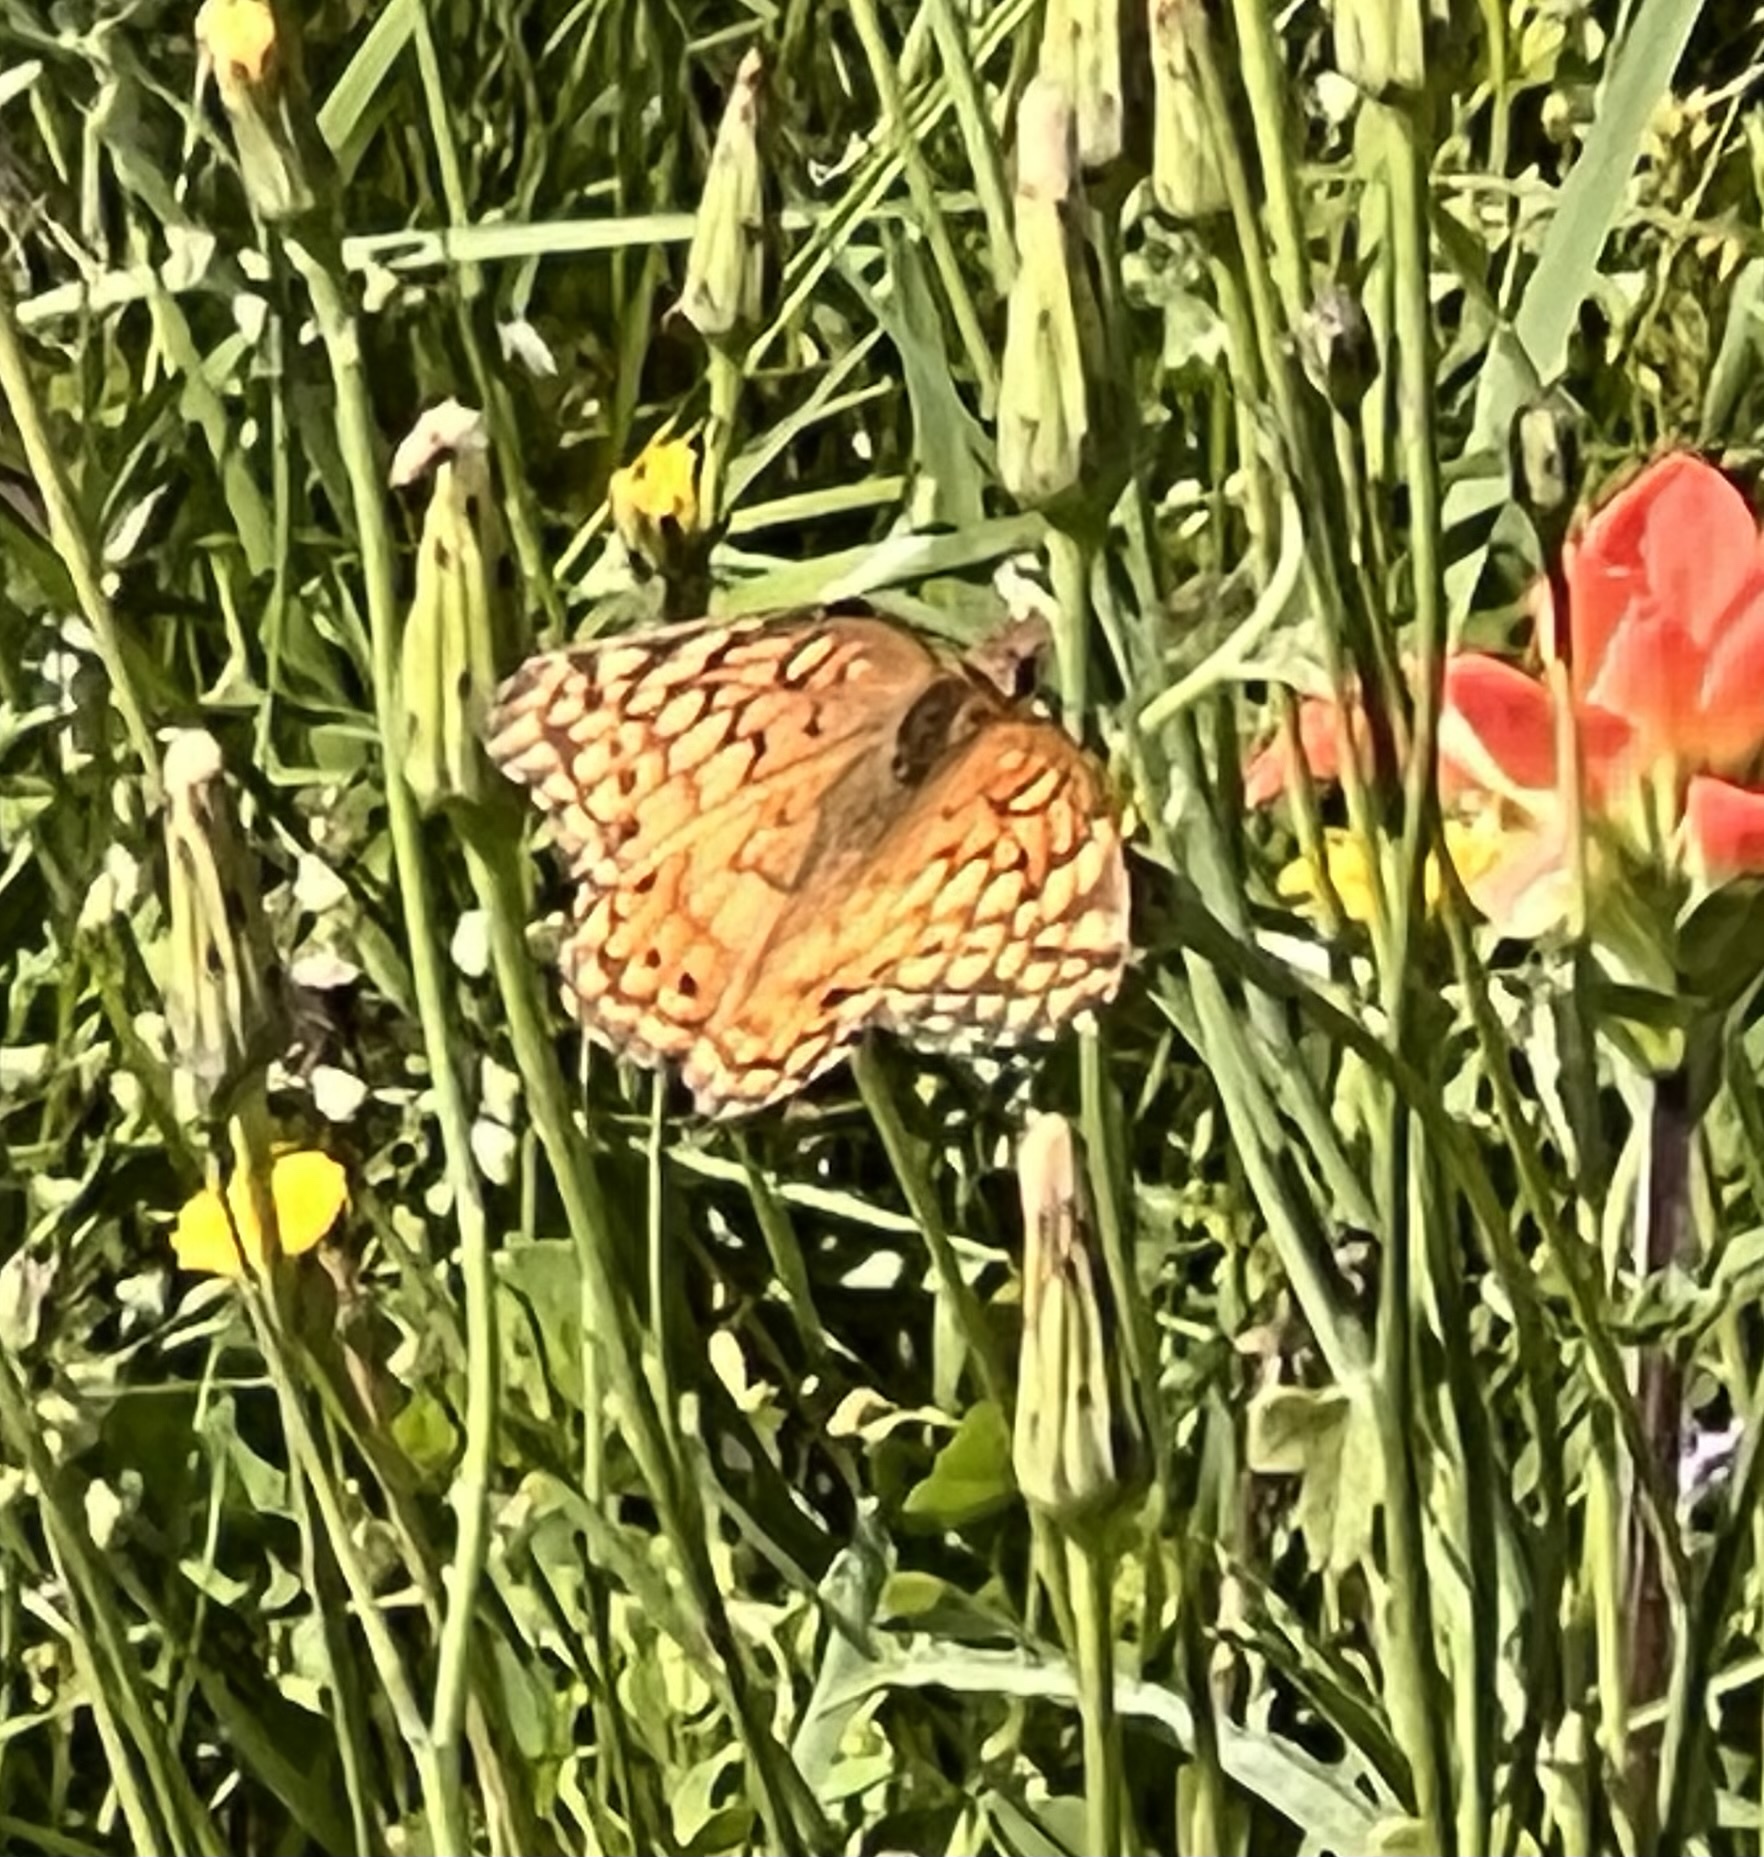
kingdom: Animalia
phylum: Arthropoda
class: Insecta
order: Lepidoptera
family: Nymphalidae
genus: Euptoieta
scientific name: Euptoieta claudia
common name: Variegated fritillary
